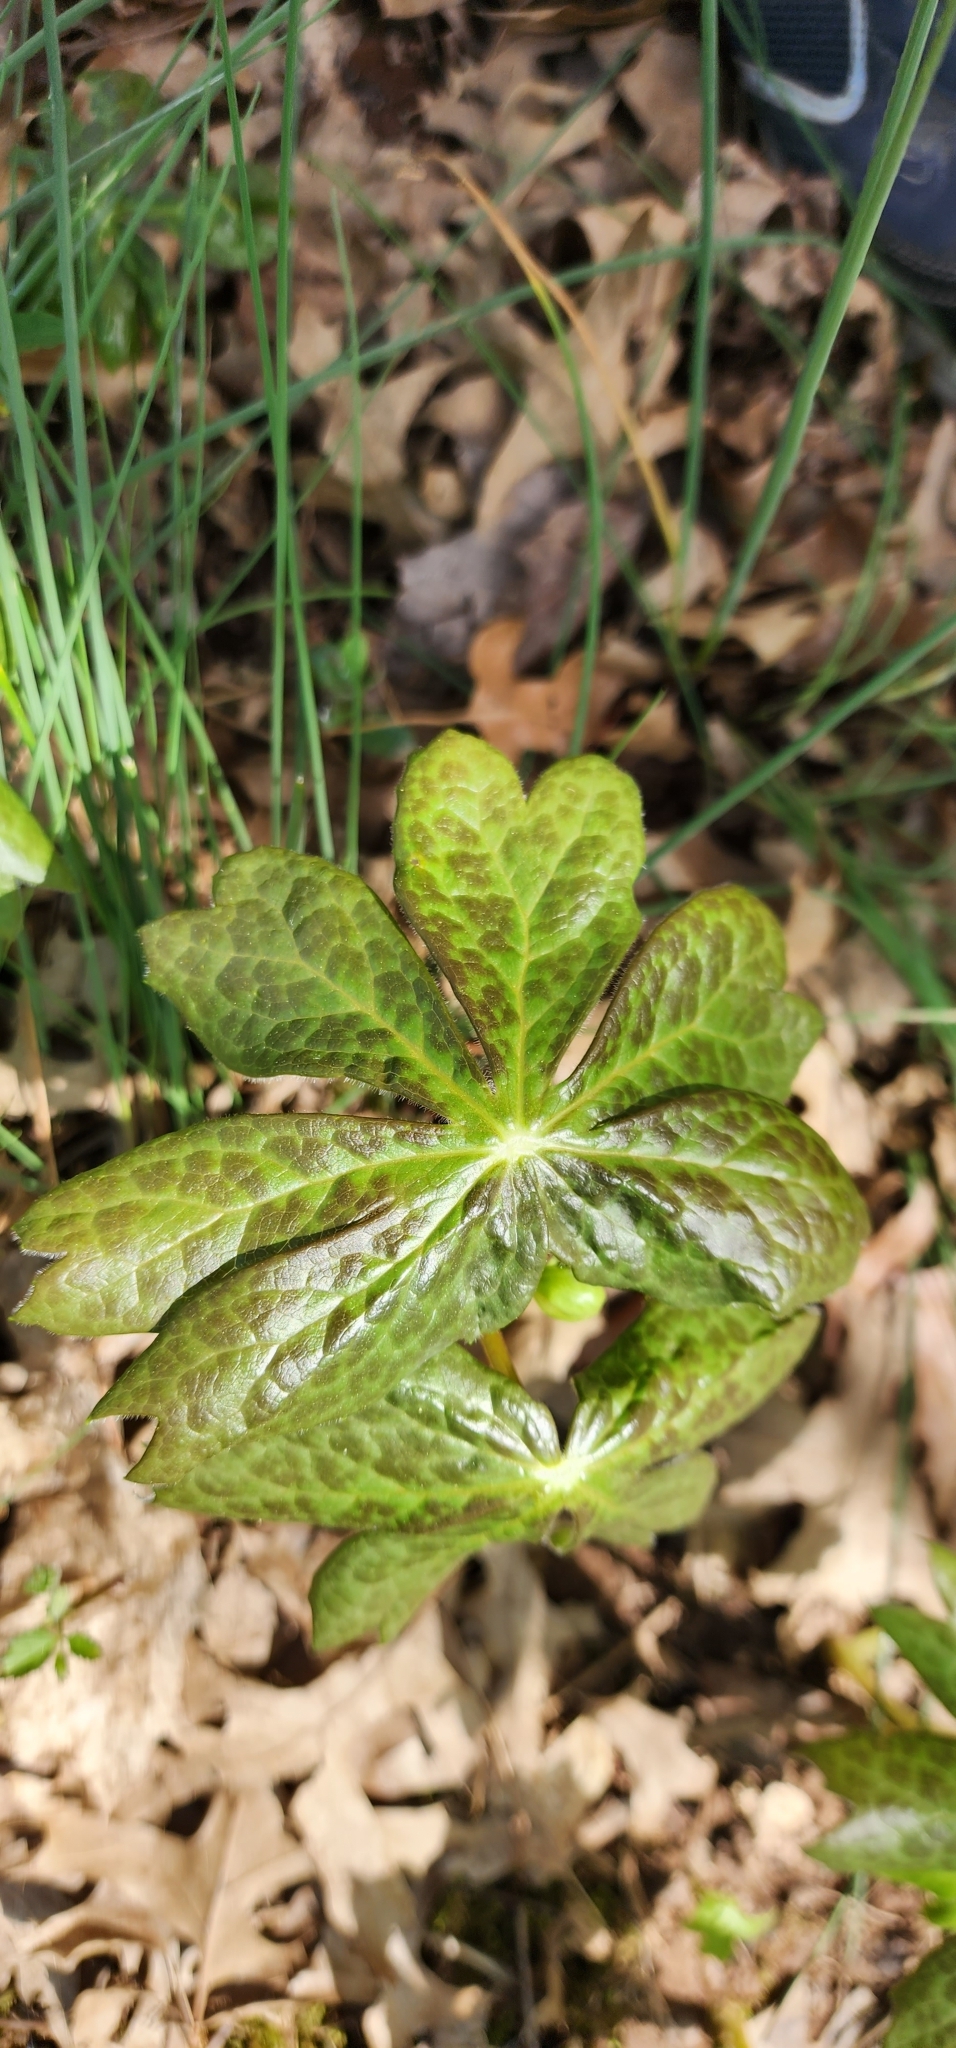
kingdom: Plantae
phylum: Tracheophyta
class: Magnoliopsida
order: Ranunculales
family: Berberidaceae
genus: Podophyllum
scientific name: Podophyllum peltatum
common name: Wild mandrake
